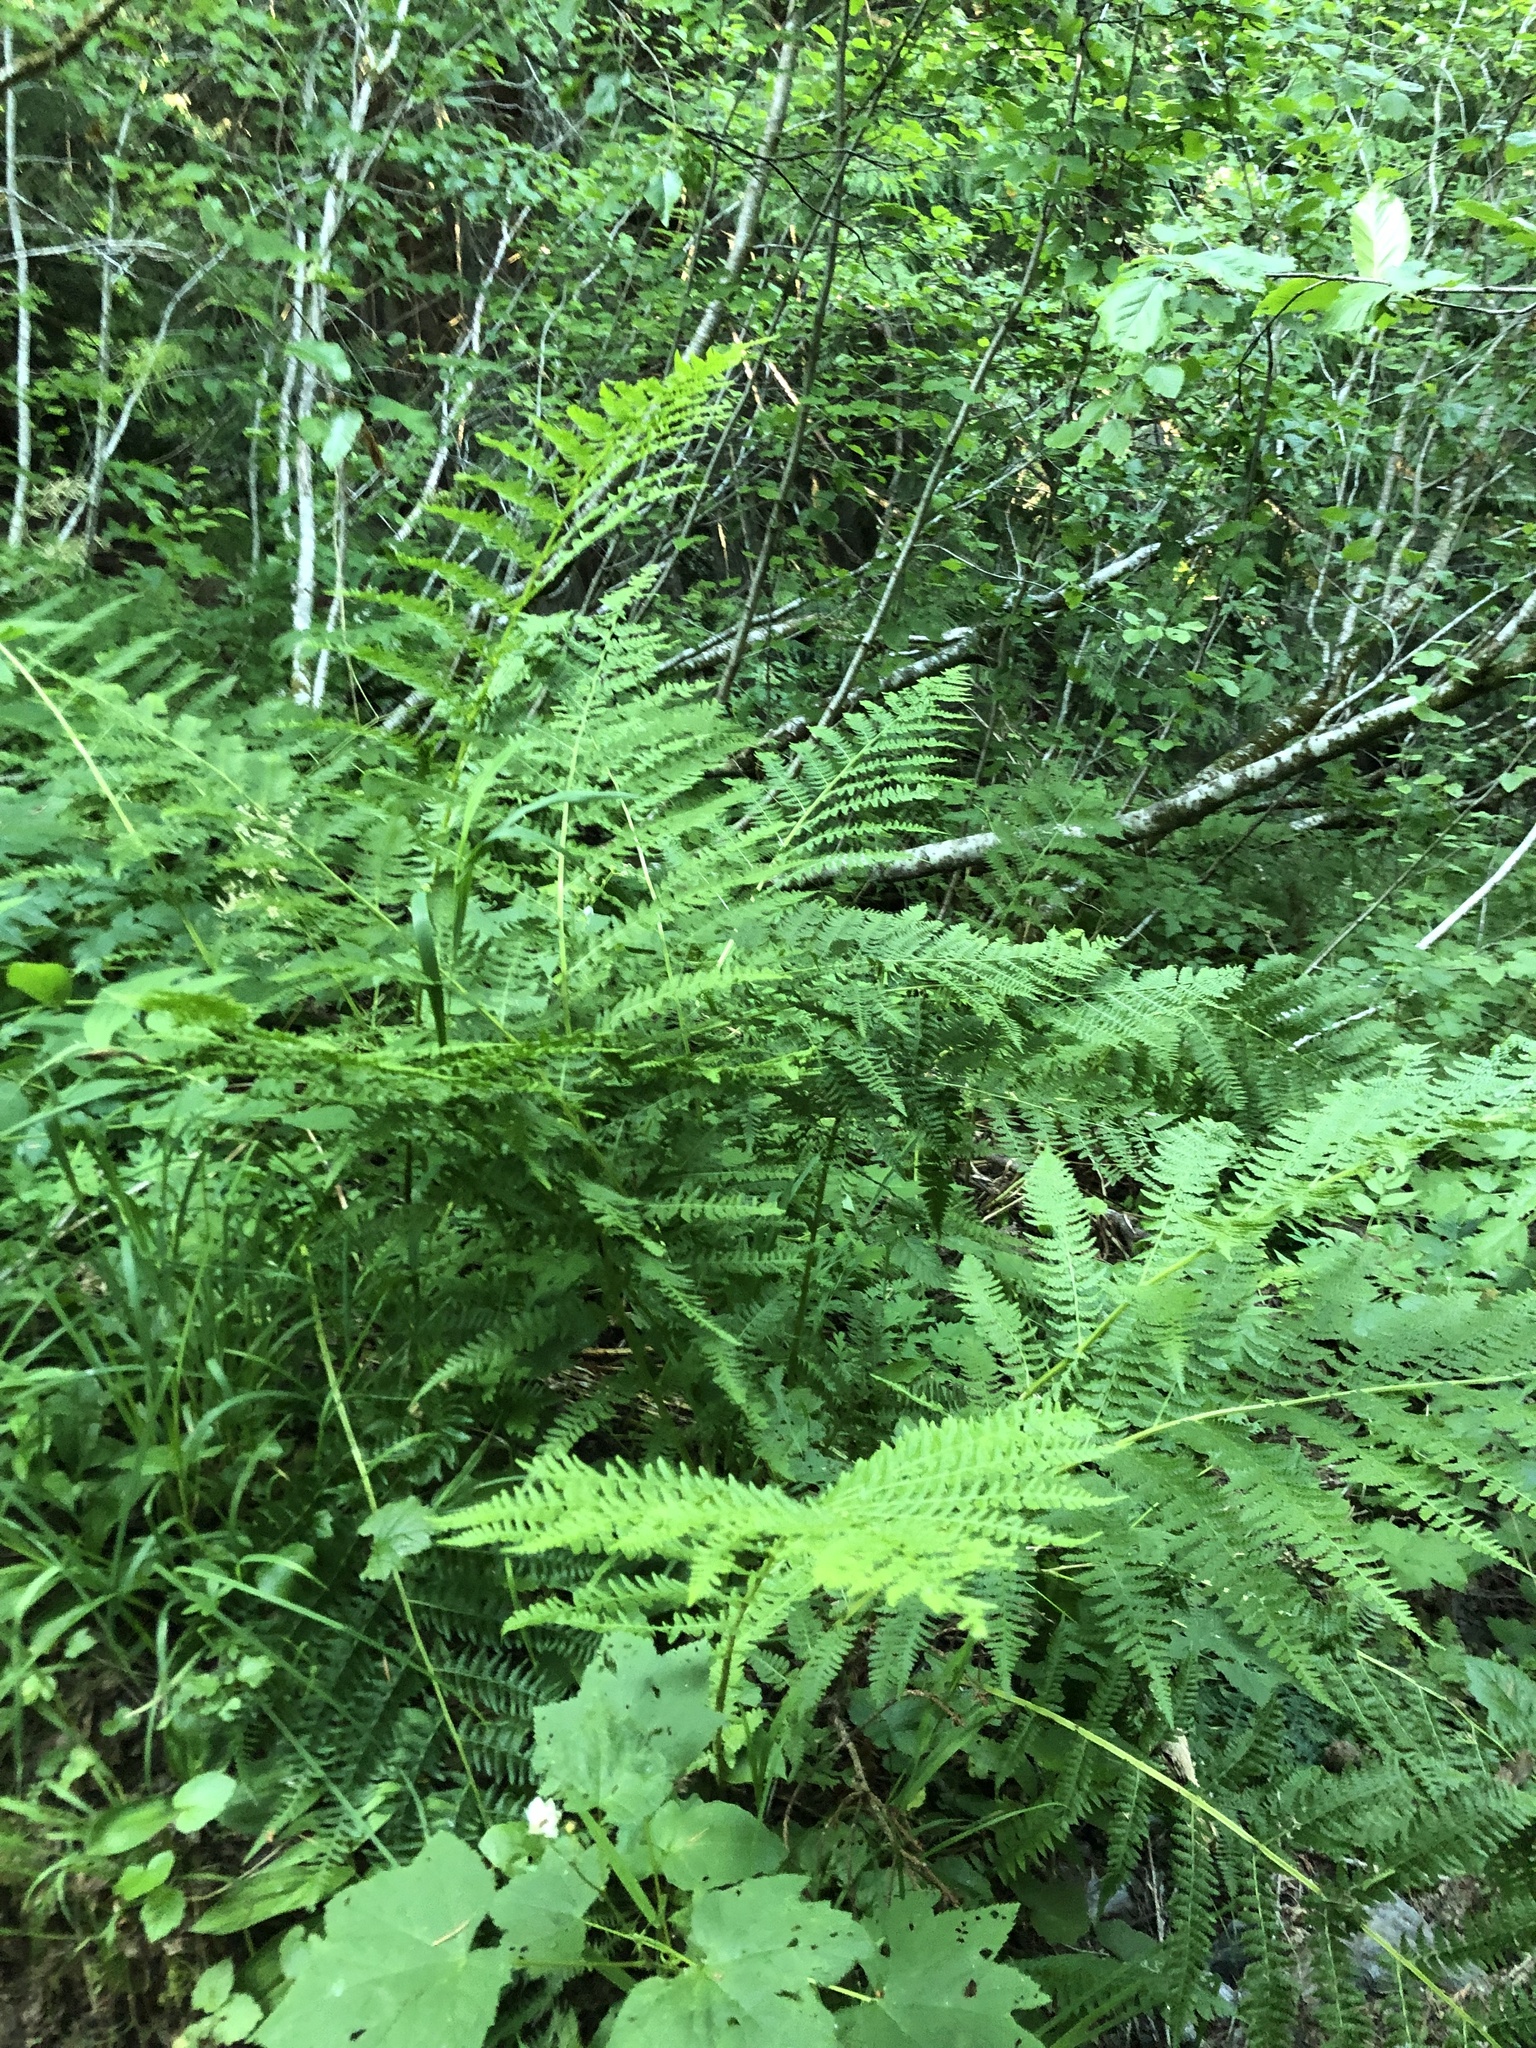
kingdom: Plantae
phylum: Tracheophyta
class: Polypodiopsida
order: Polypodiales
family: Athyriaceae
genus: Athyrium
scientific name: Athyrium filix-femina
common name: Lady fern
